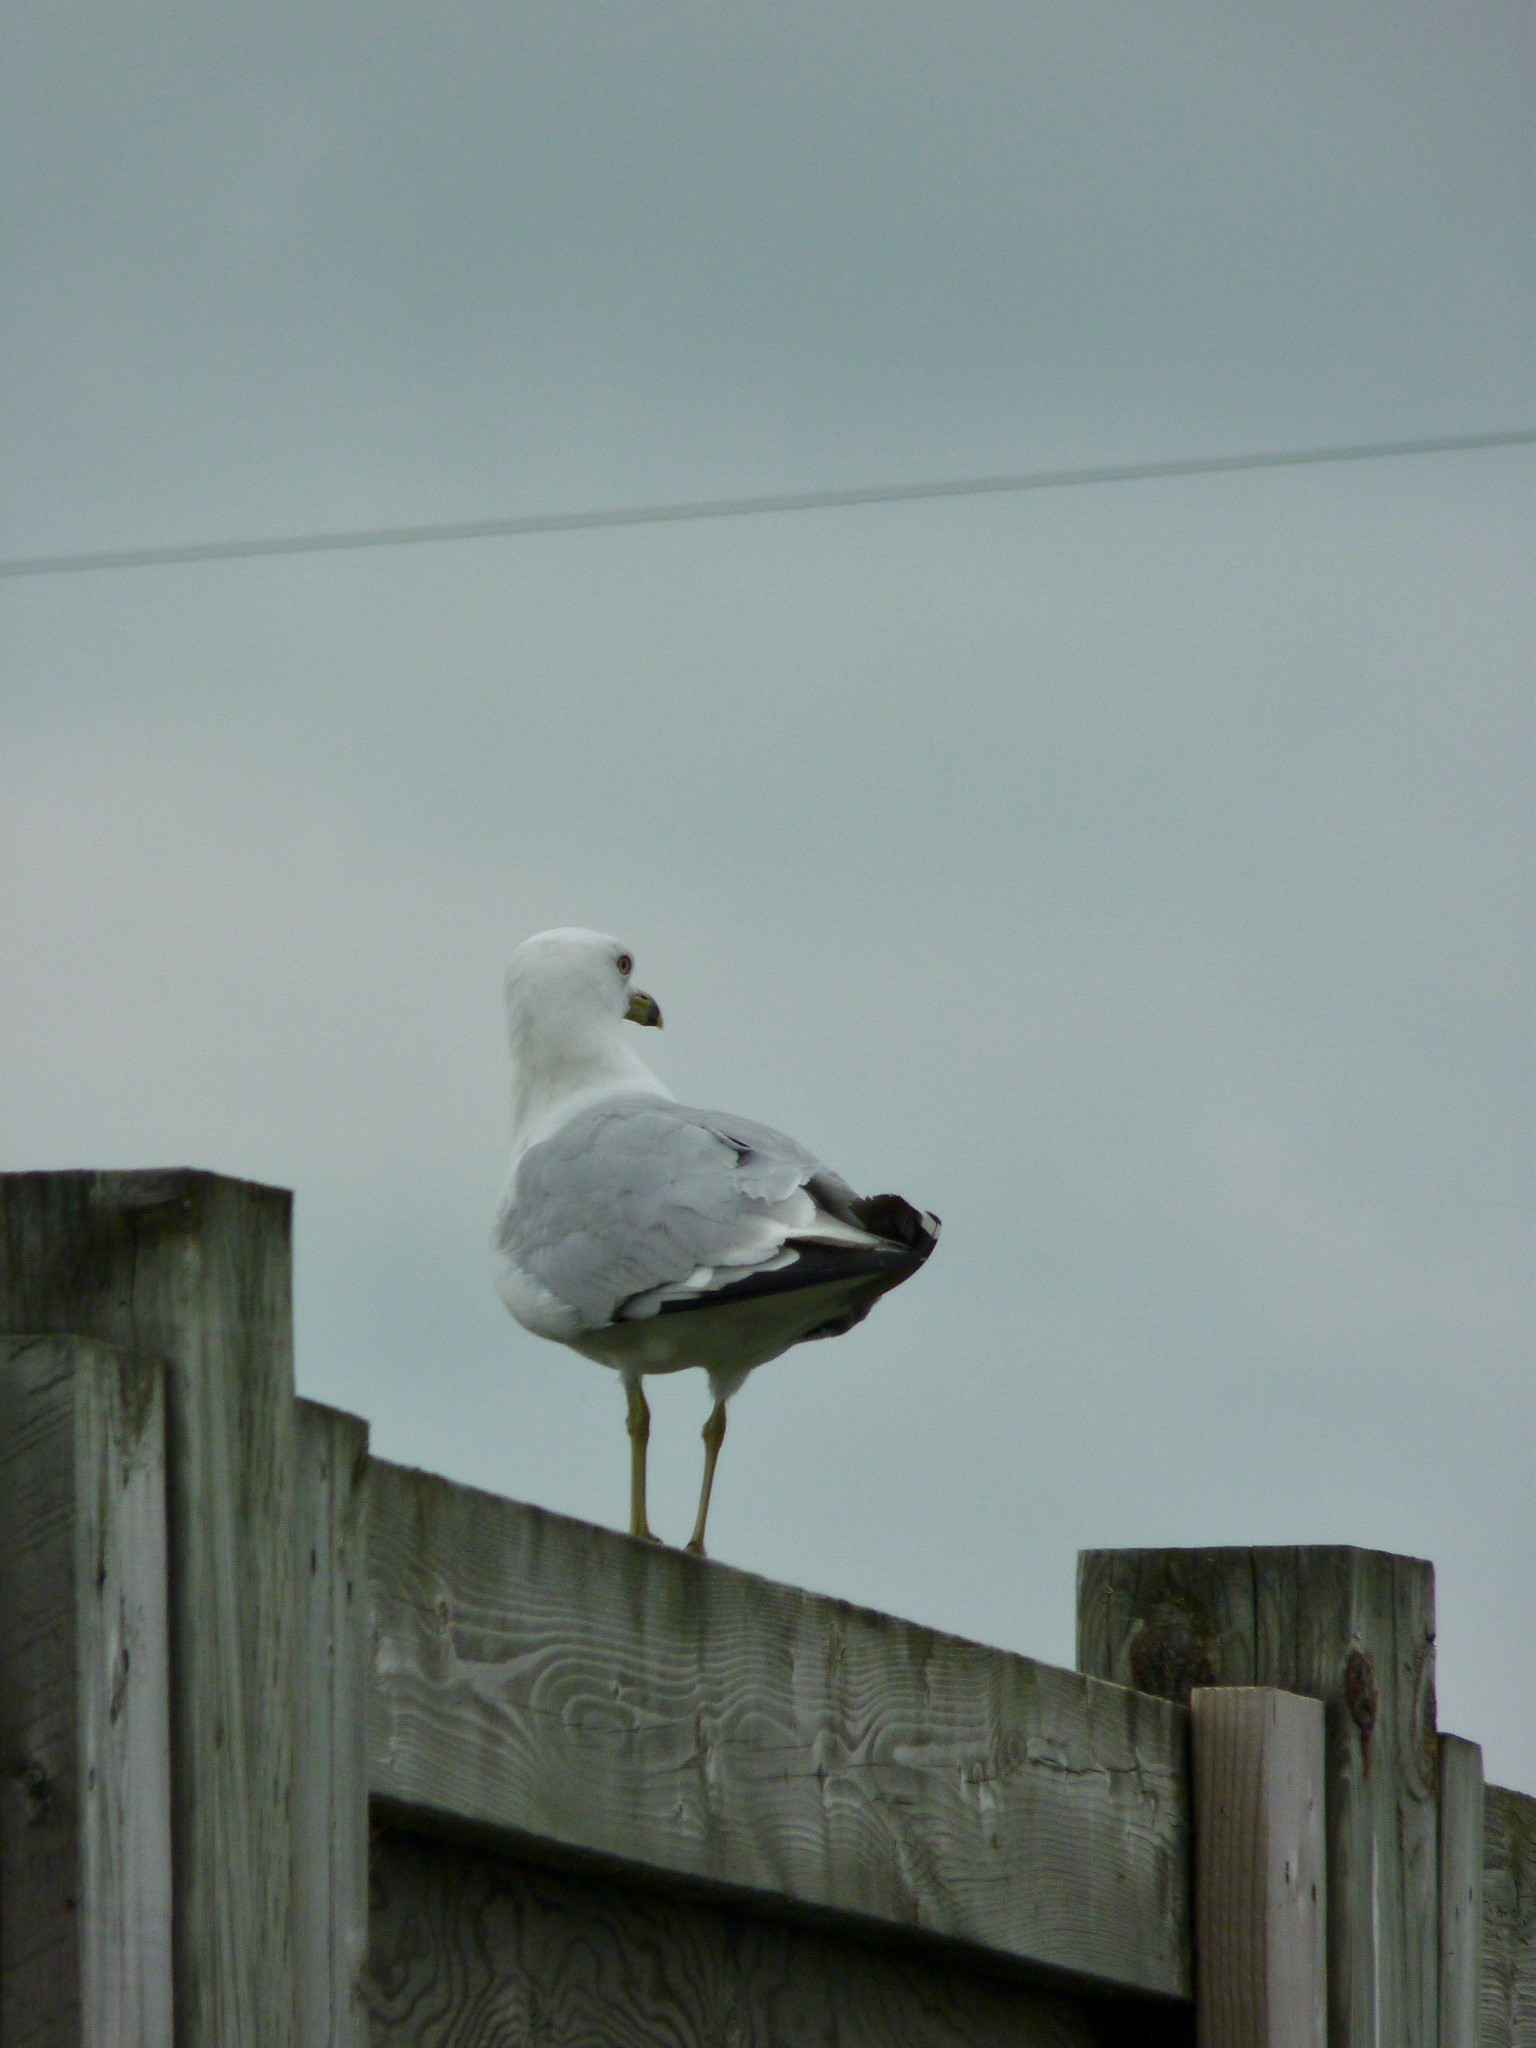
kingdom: Animalia
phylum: Chordata
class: Aves
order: Charadriiformes
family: Laridae
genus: Larus
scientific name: Larus delawarensis
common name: Ring-billed gull
